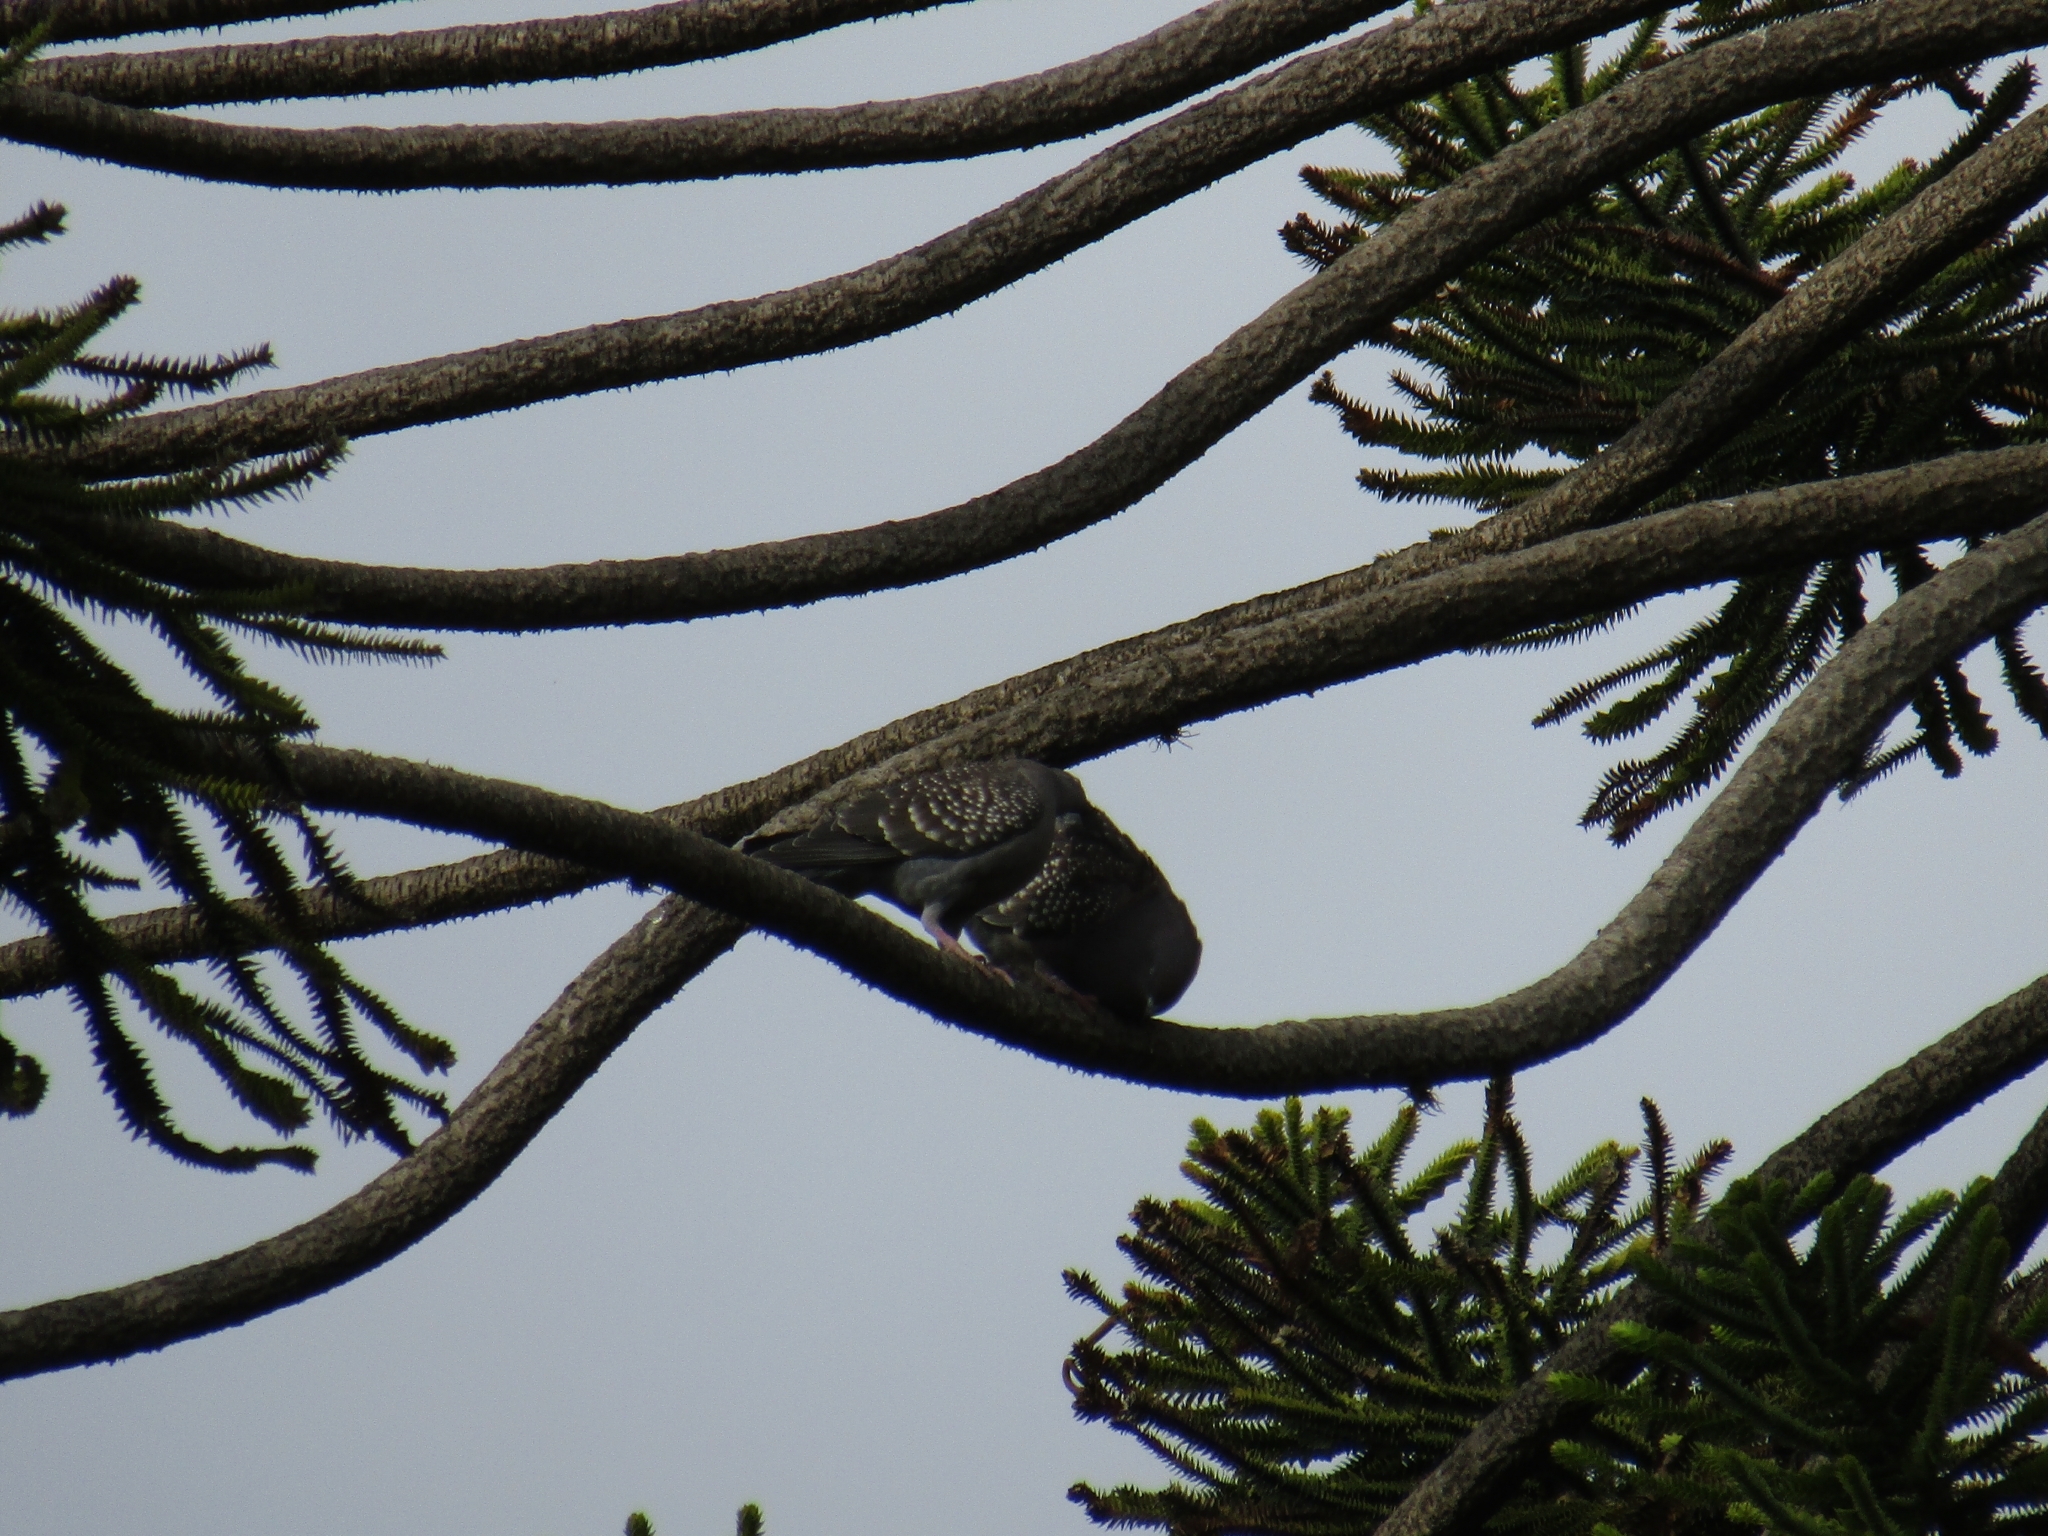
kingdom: Animalia
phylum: Chordata
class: Aves
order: Columbiformes
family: Columbidae
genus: Patagioenas
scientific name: Patagioenas maculosa
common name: Spot-winged pigeon
